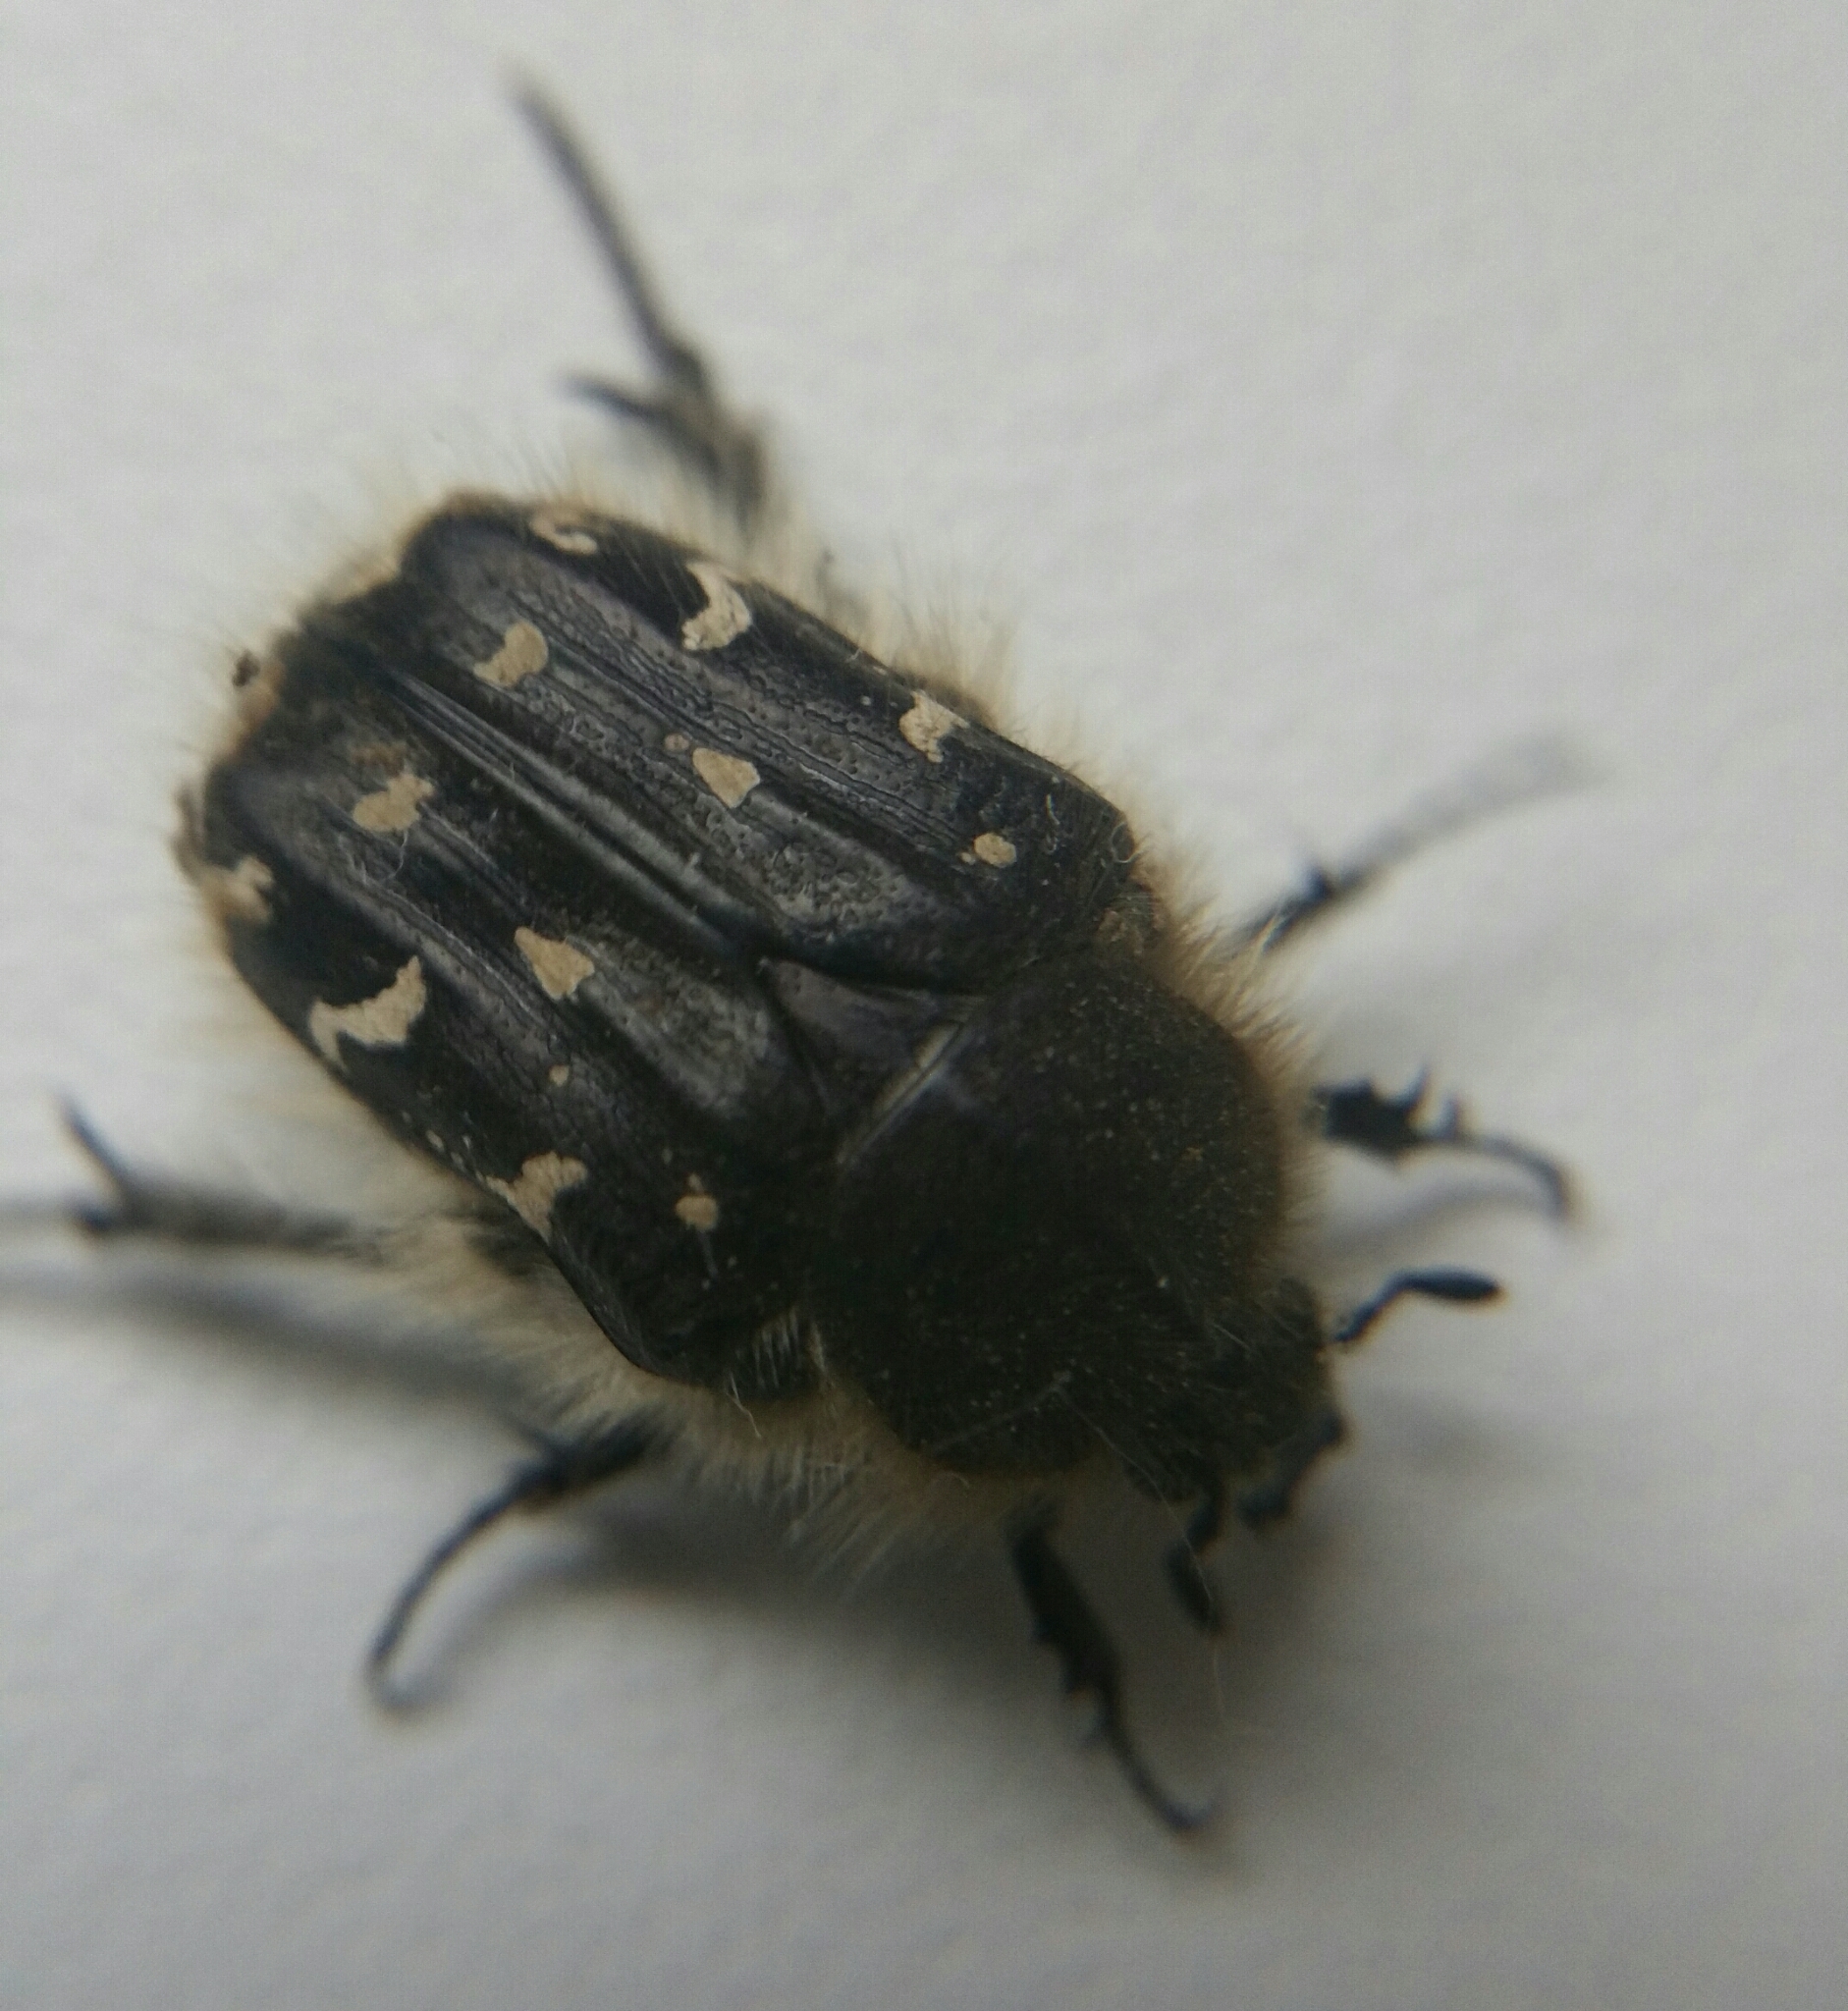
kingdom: Animalia
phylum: Arthropoda
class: Insecta
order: Coleoptera
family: Scarabaeidae
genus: Tropinota
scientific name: Tropinota hirta
